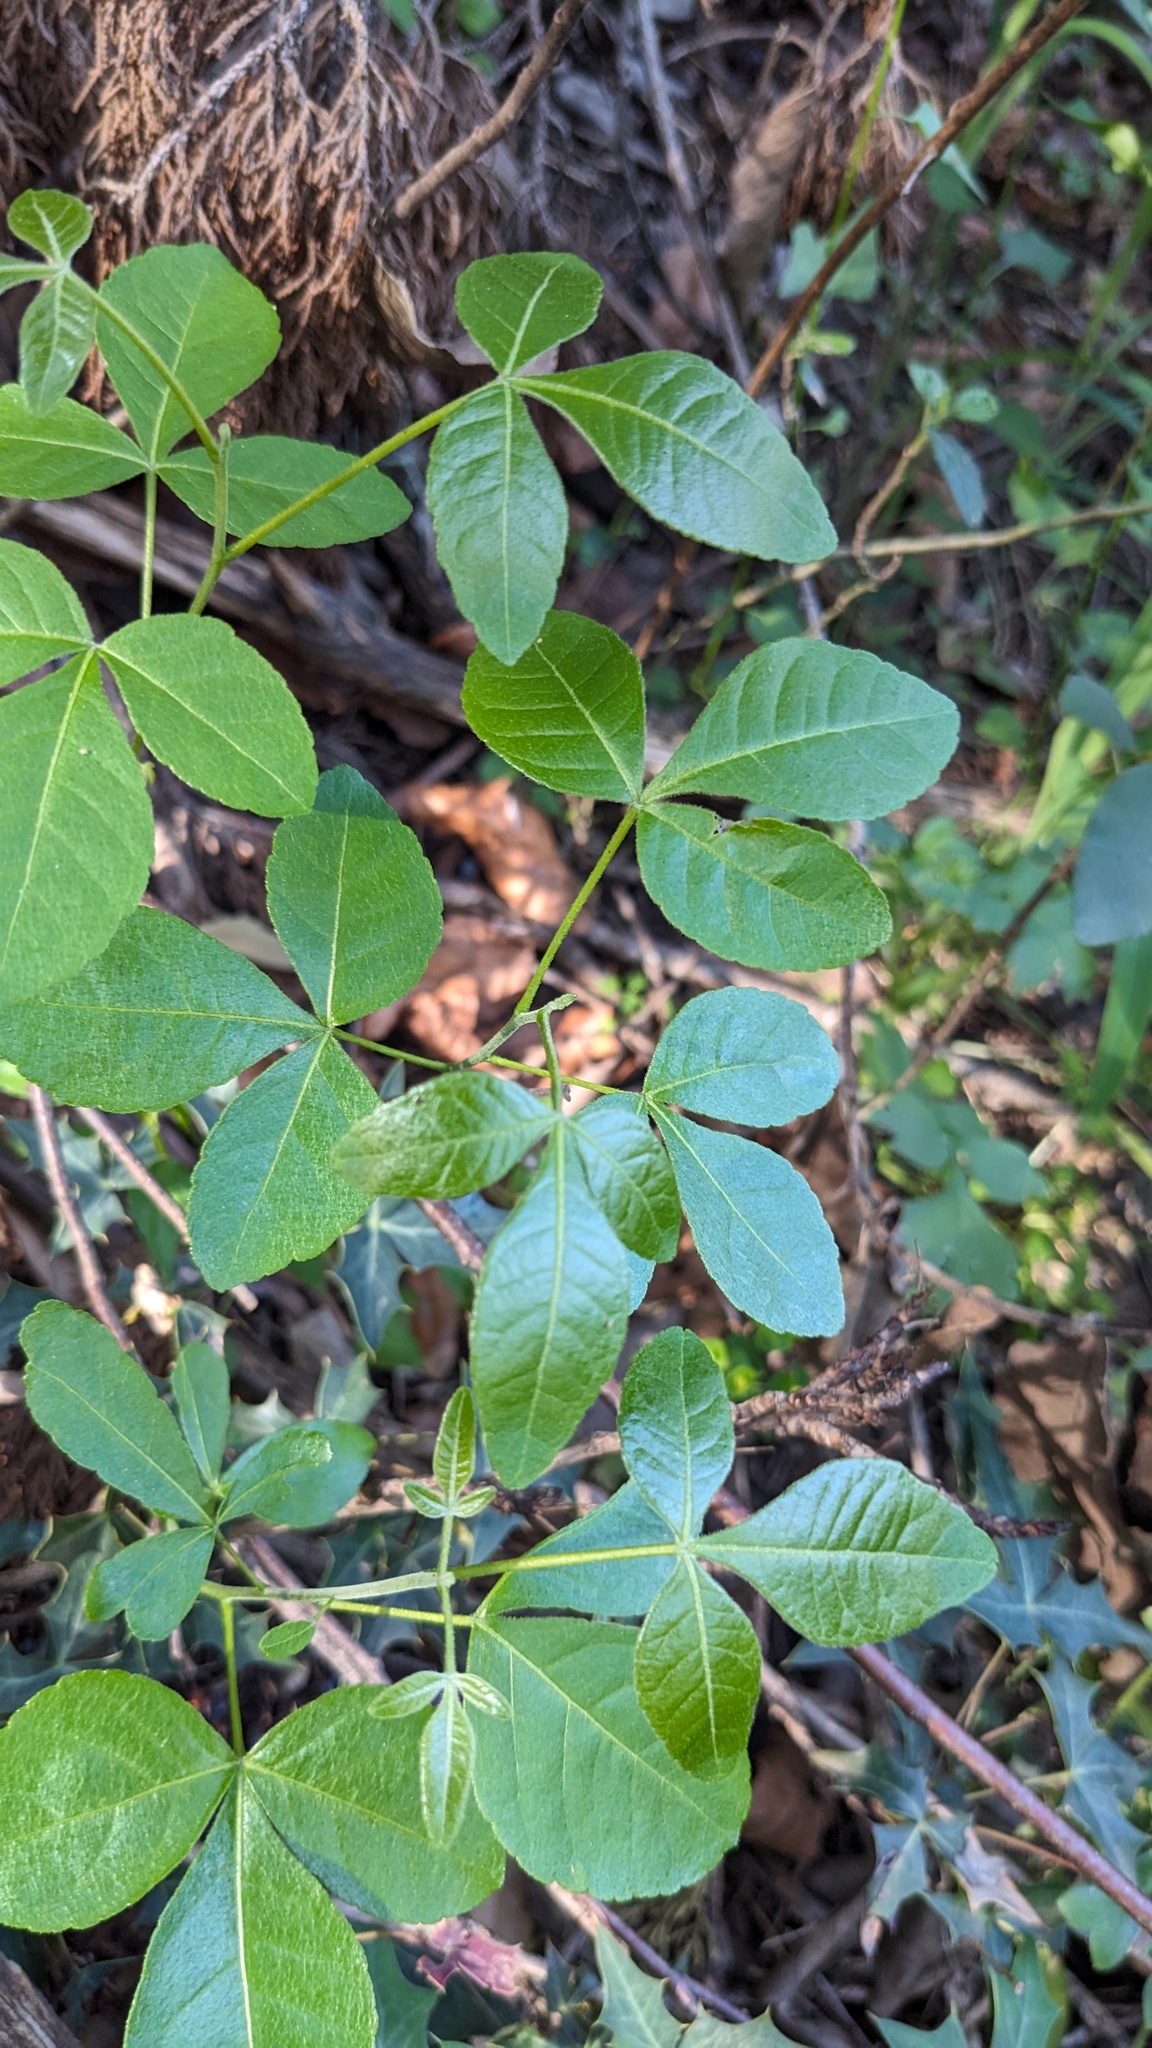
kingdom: Plantae
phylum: Tracheophyta
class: Magnoliopsida
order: Sapindales
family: Rutaceae
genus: Ptelea
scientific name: Ptelea trifoliata
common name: Common hop-tree
